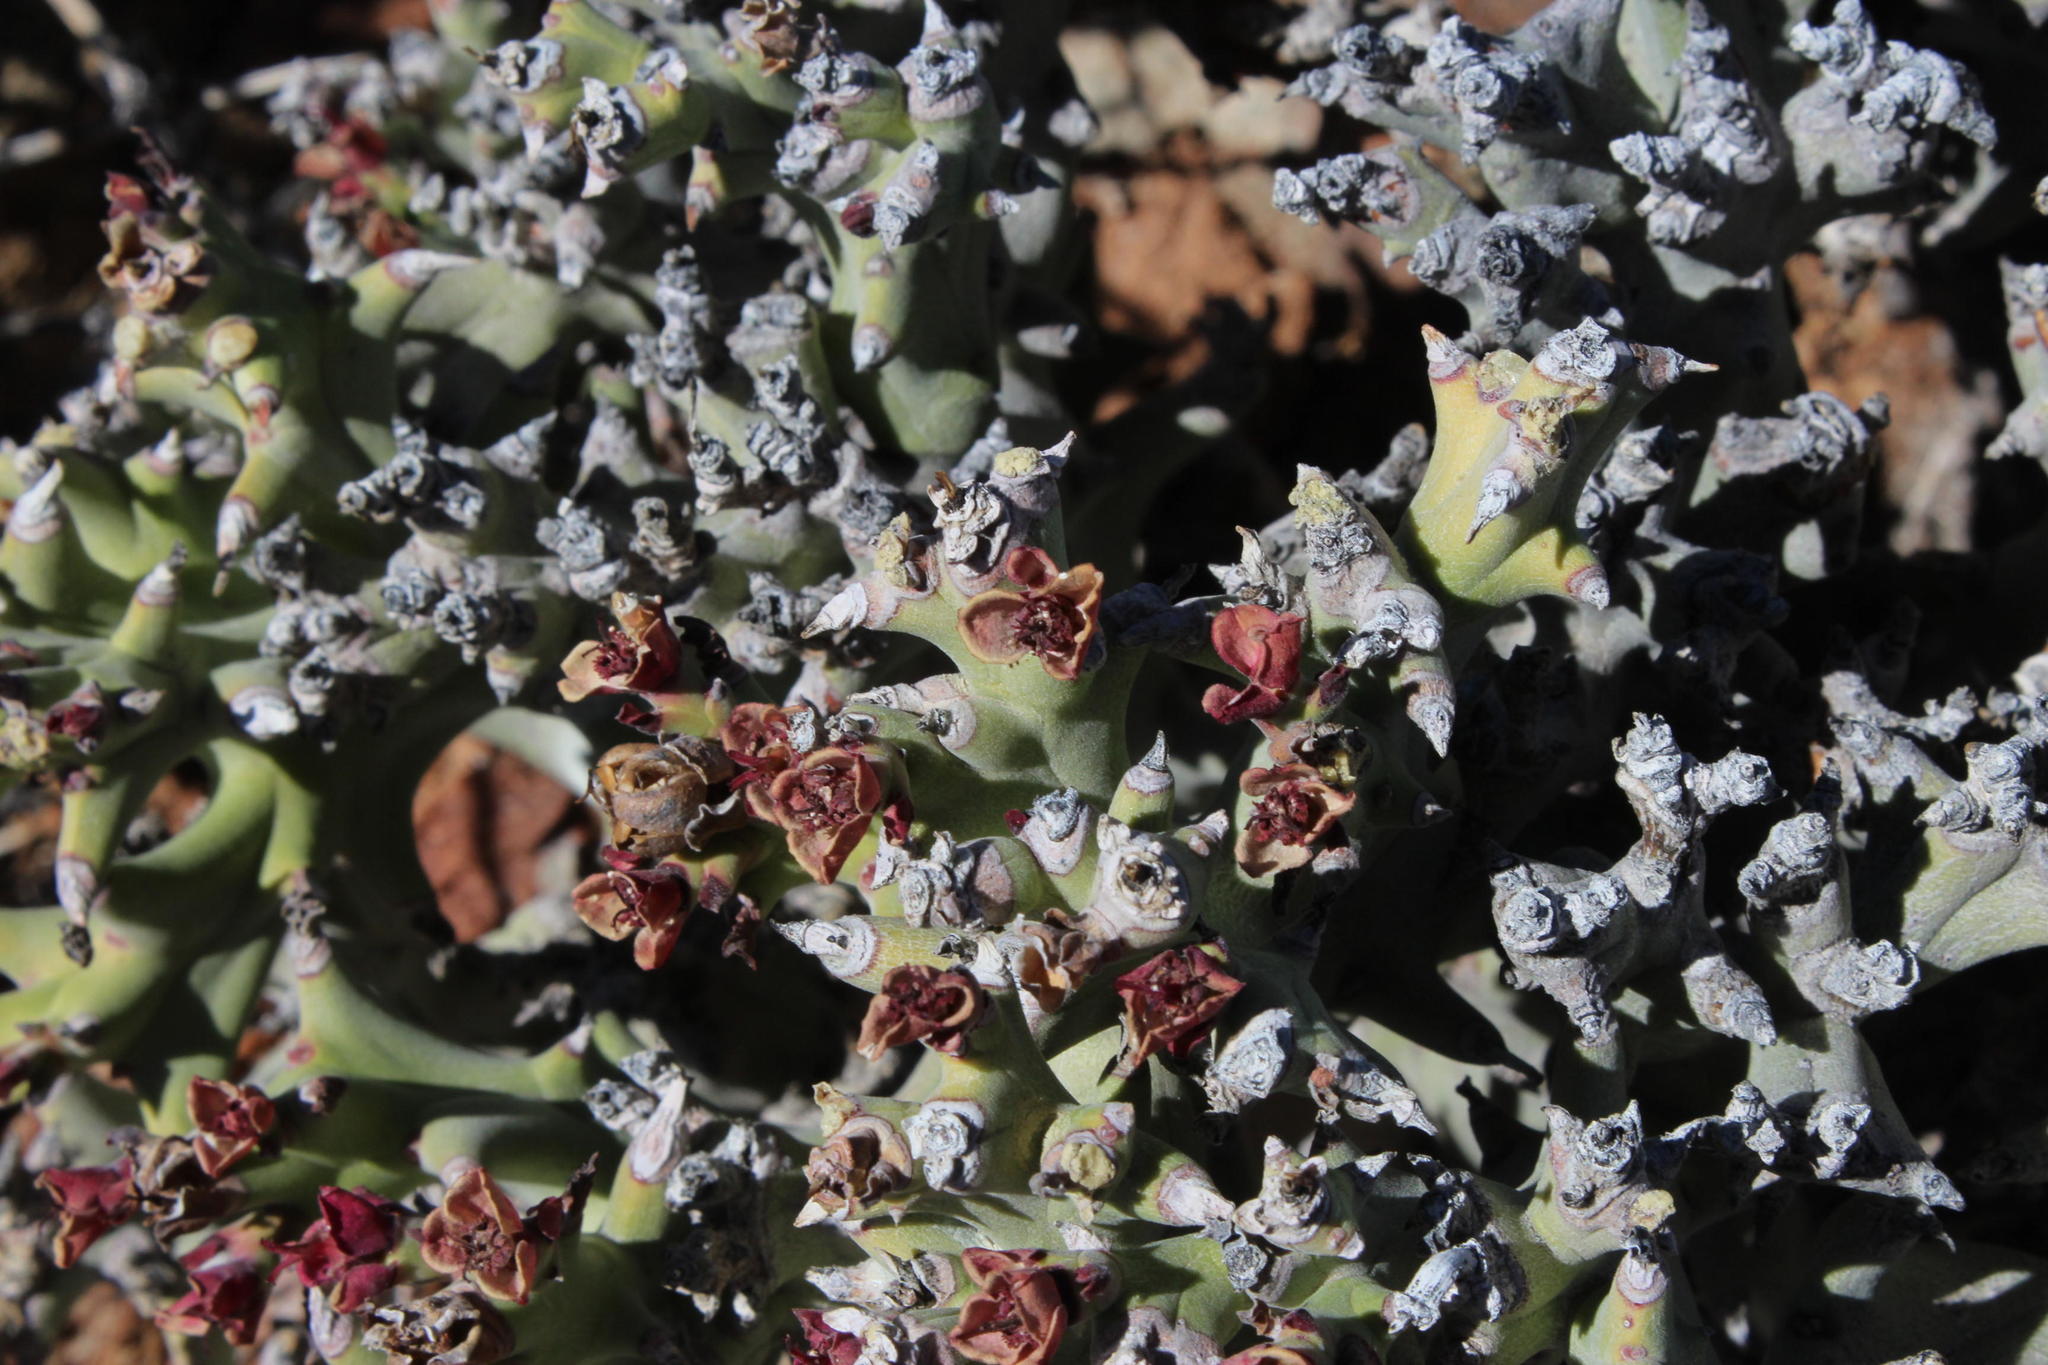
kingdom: Plantae
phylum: Tracheophyta
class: Magnoliopsida
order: Malpighiales
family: Euphorbiaceae
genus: Euphorbia
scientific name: Euphorbia hamata
